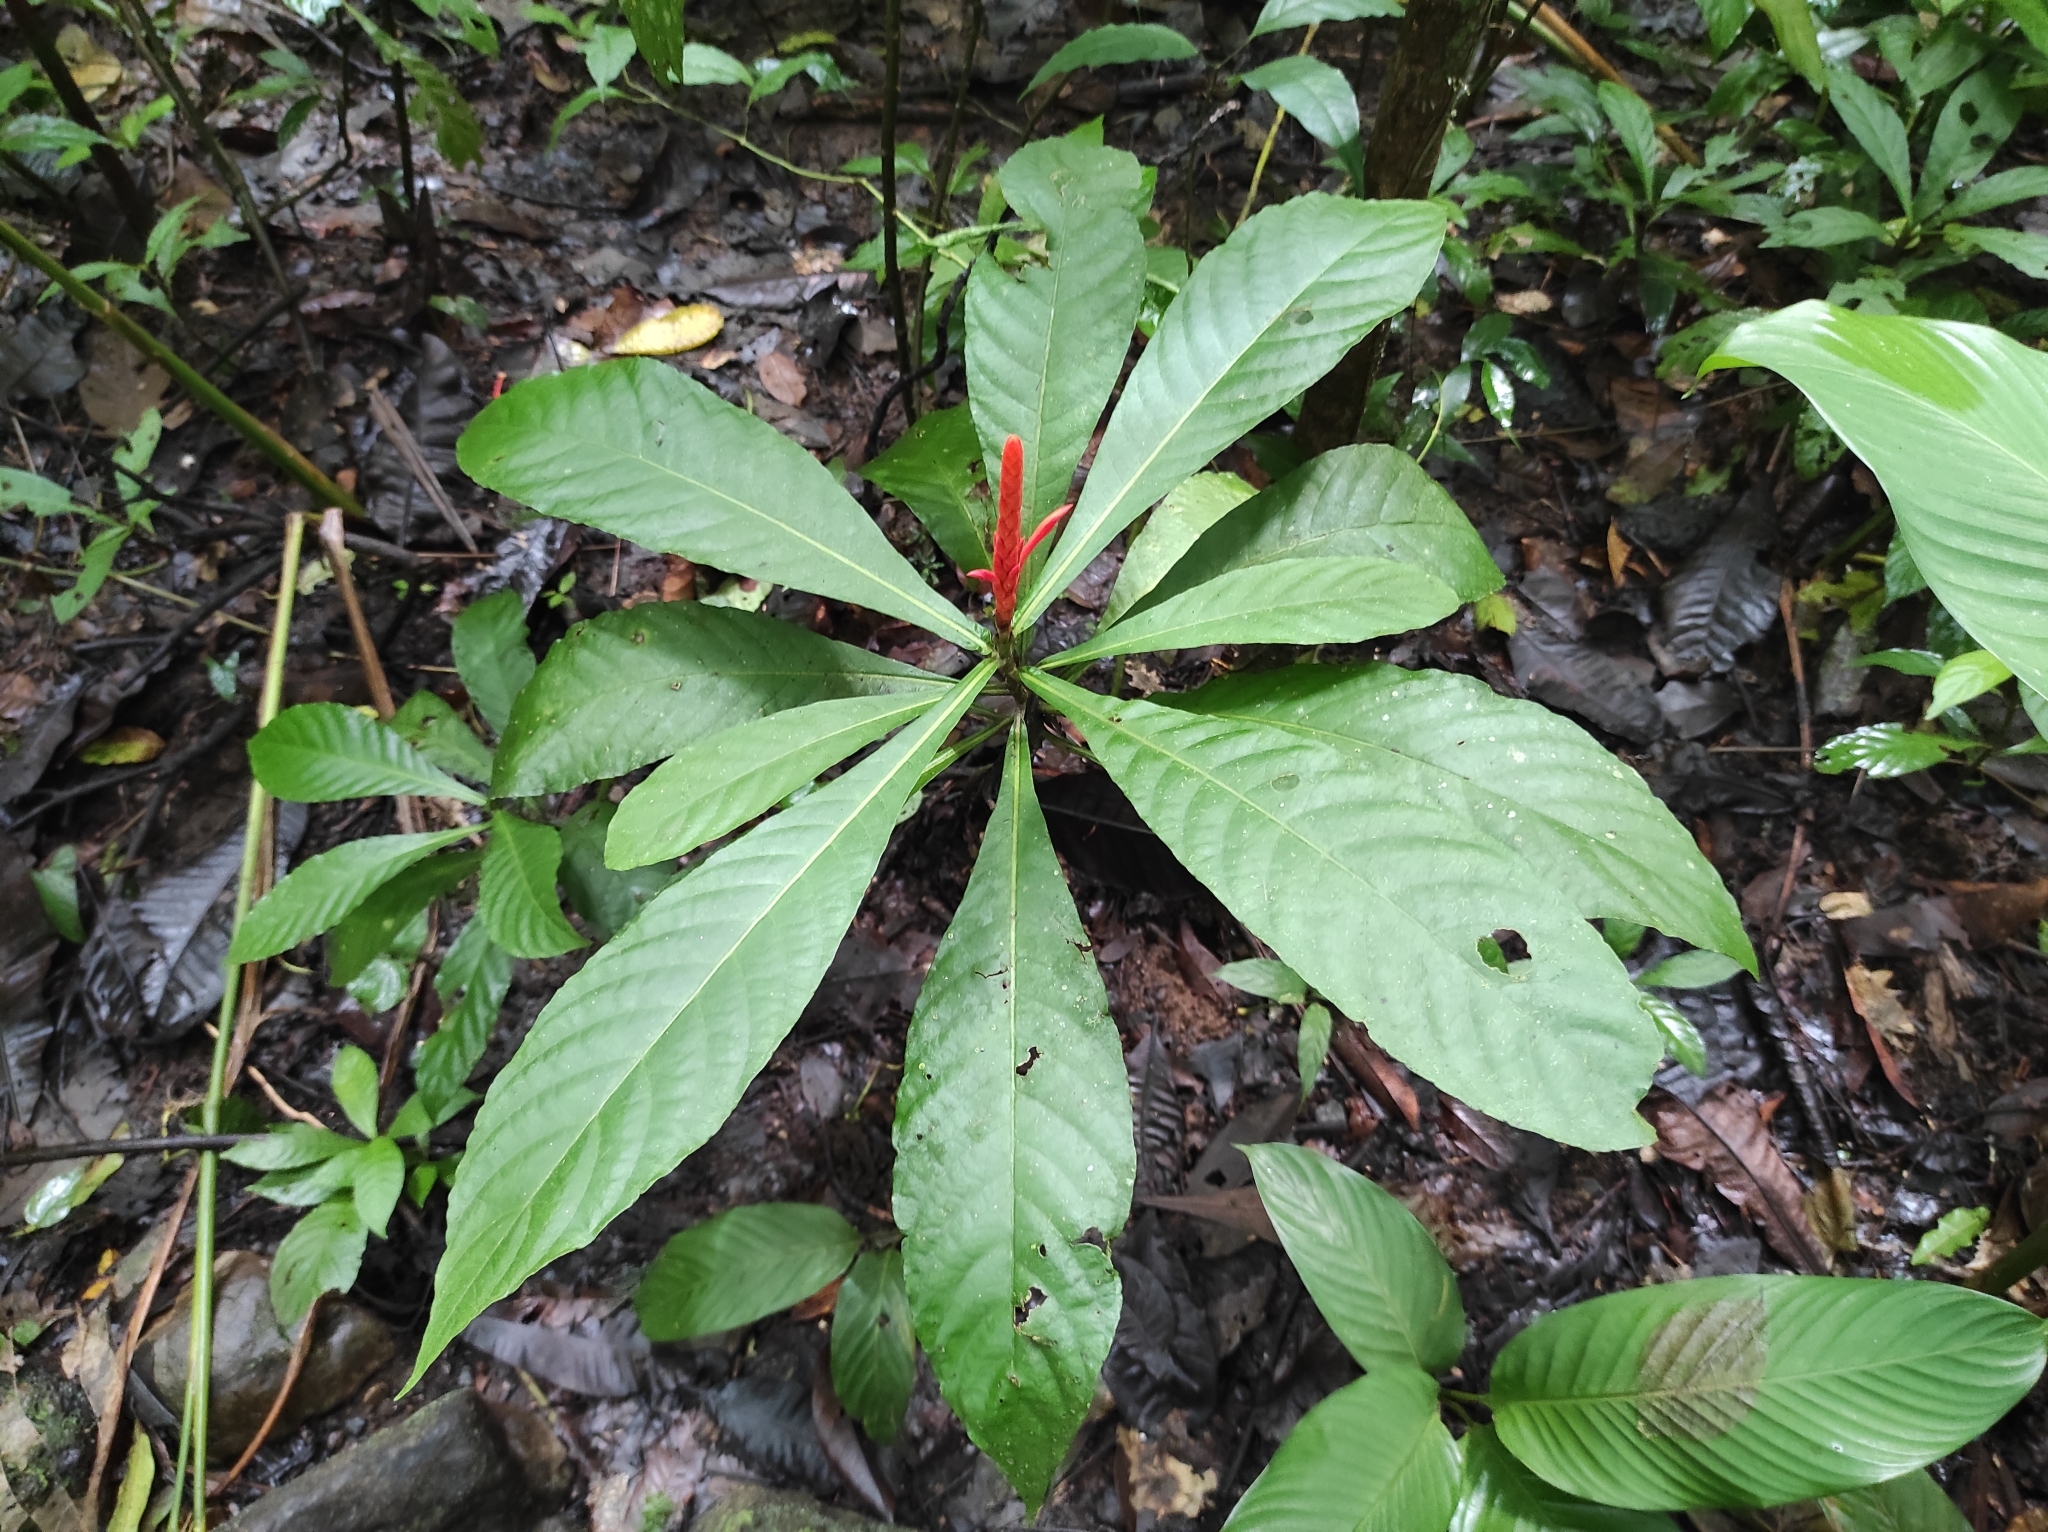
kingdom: Plantae
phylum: Tracheophyta
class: Magnoliopsida
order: Lamiales
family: Acanthaceae
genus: Aphelandra
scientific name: Aphelandra lingua-bovis
